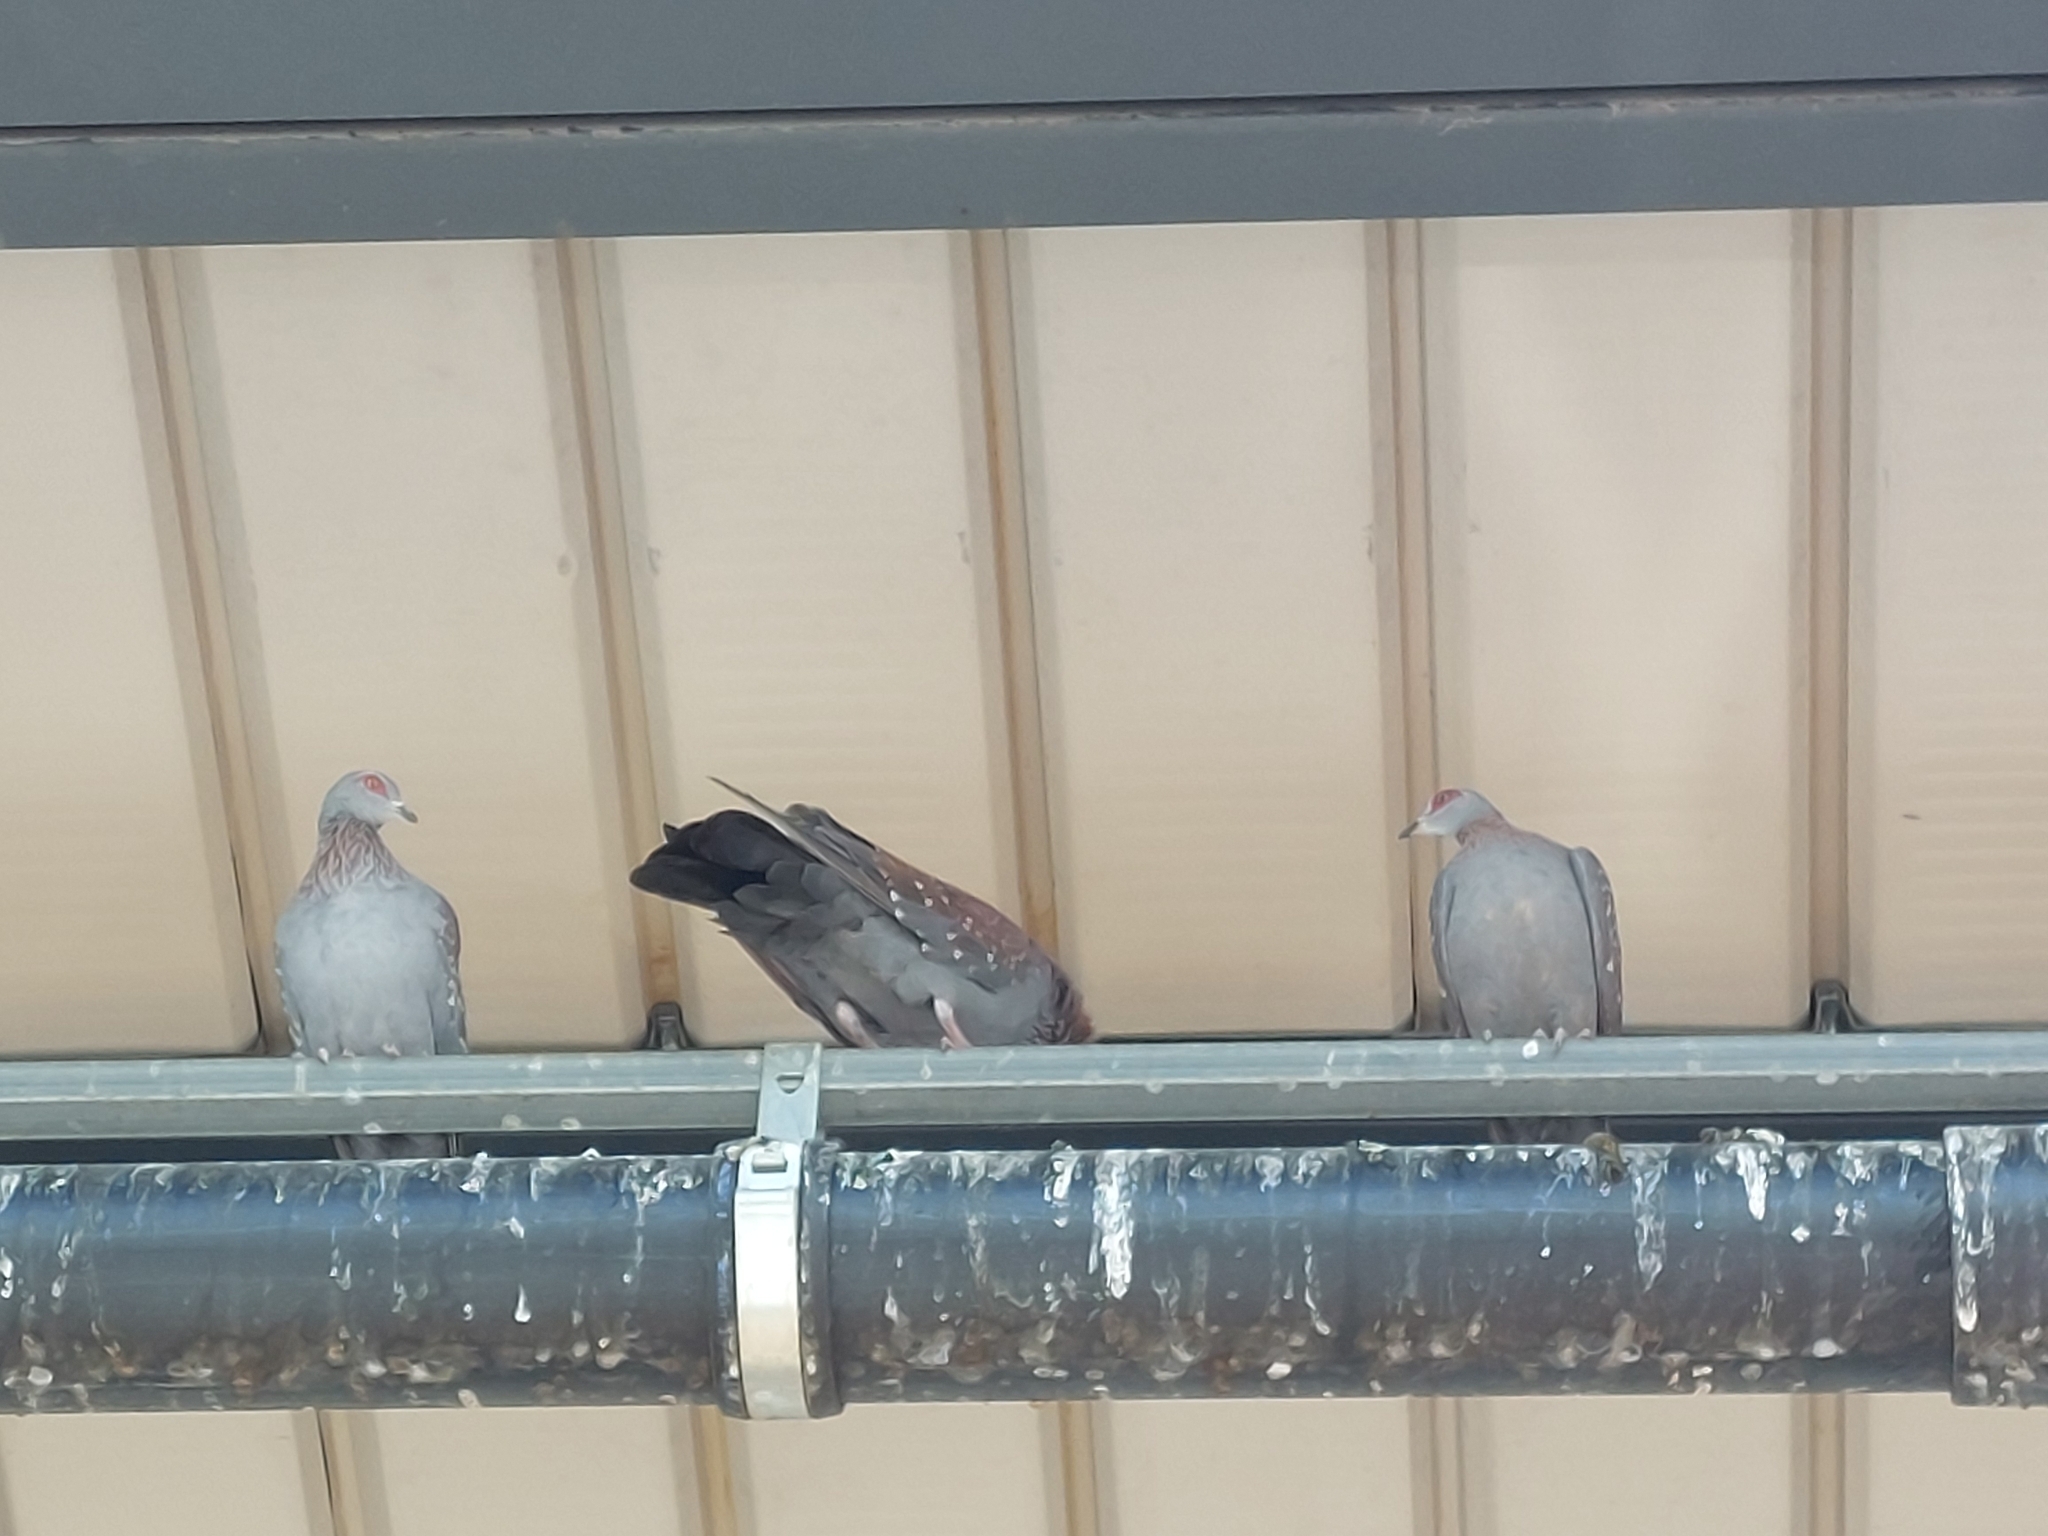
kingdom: Animalia
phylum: Chordata
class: Aves
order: Columbiformes
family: Columbidae
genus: Columba
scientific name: Columba guinea
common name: Speckled pigeon
